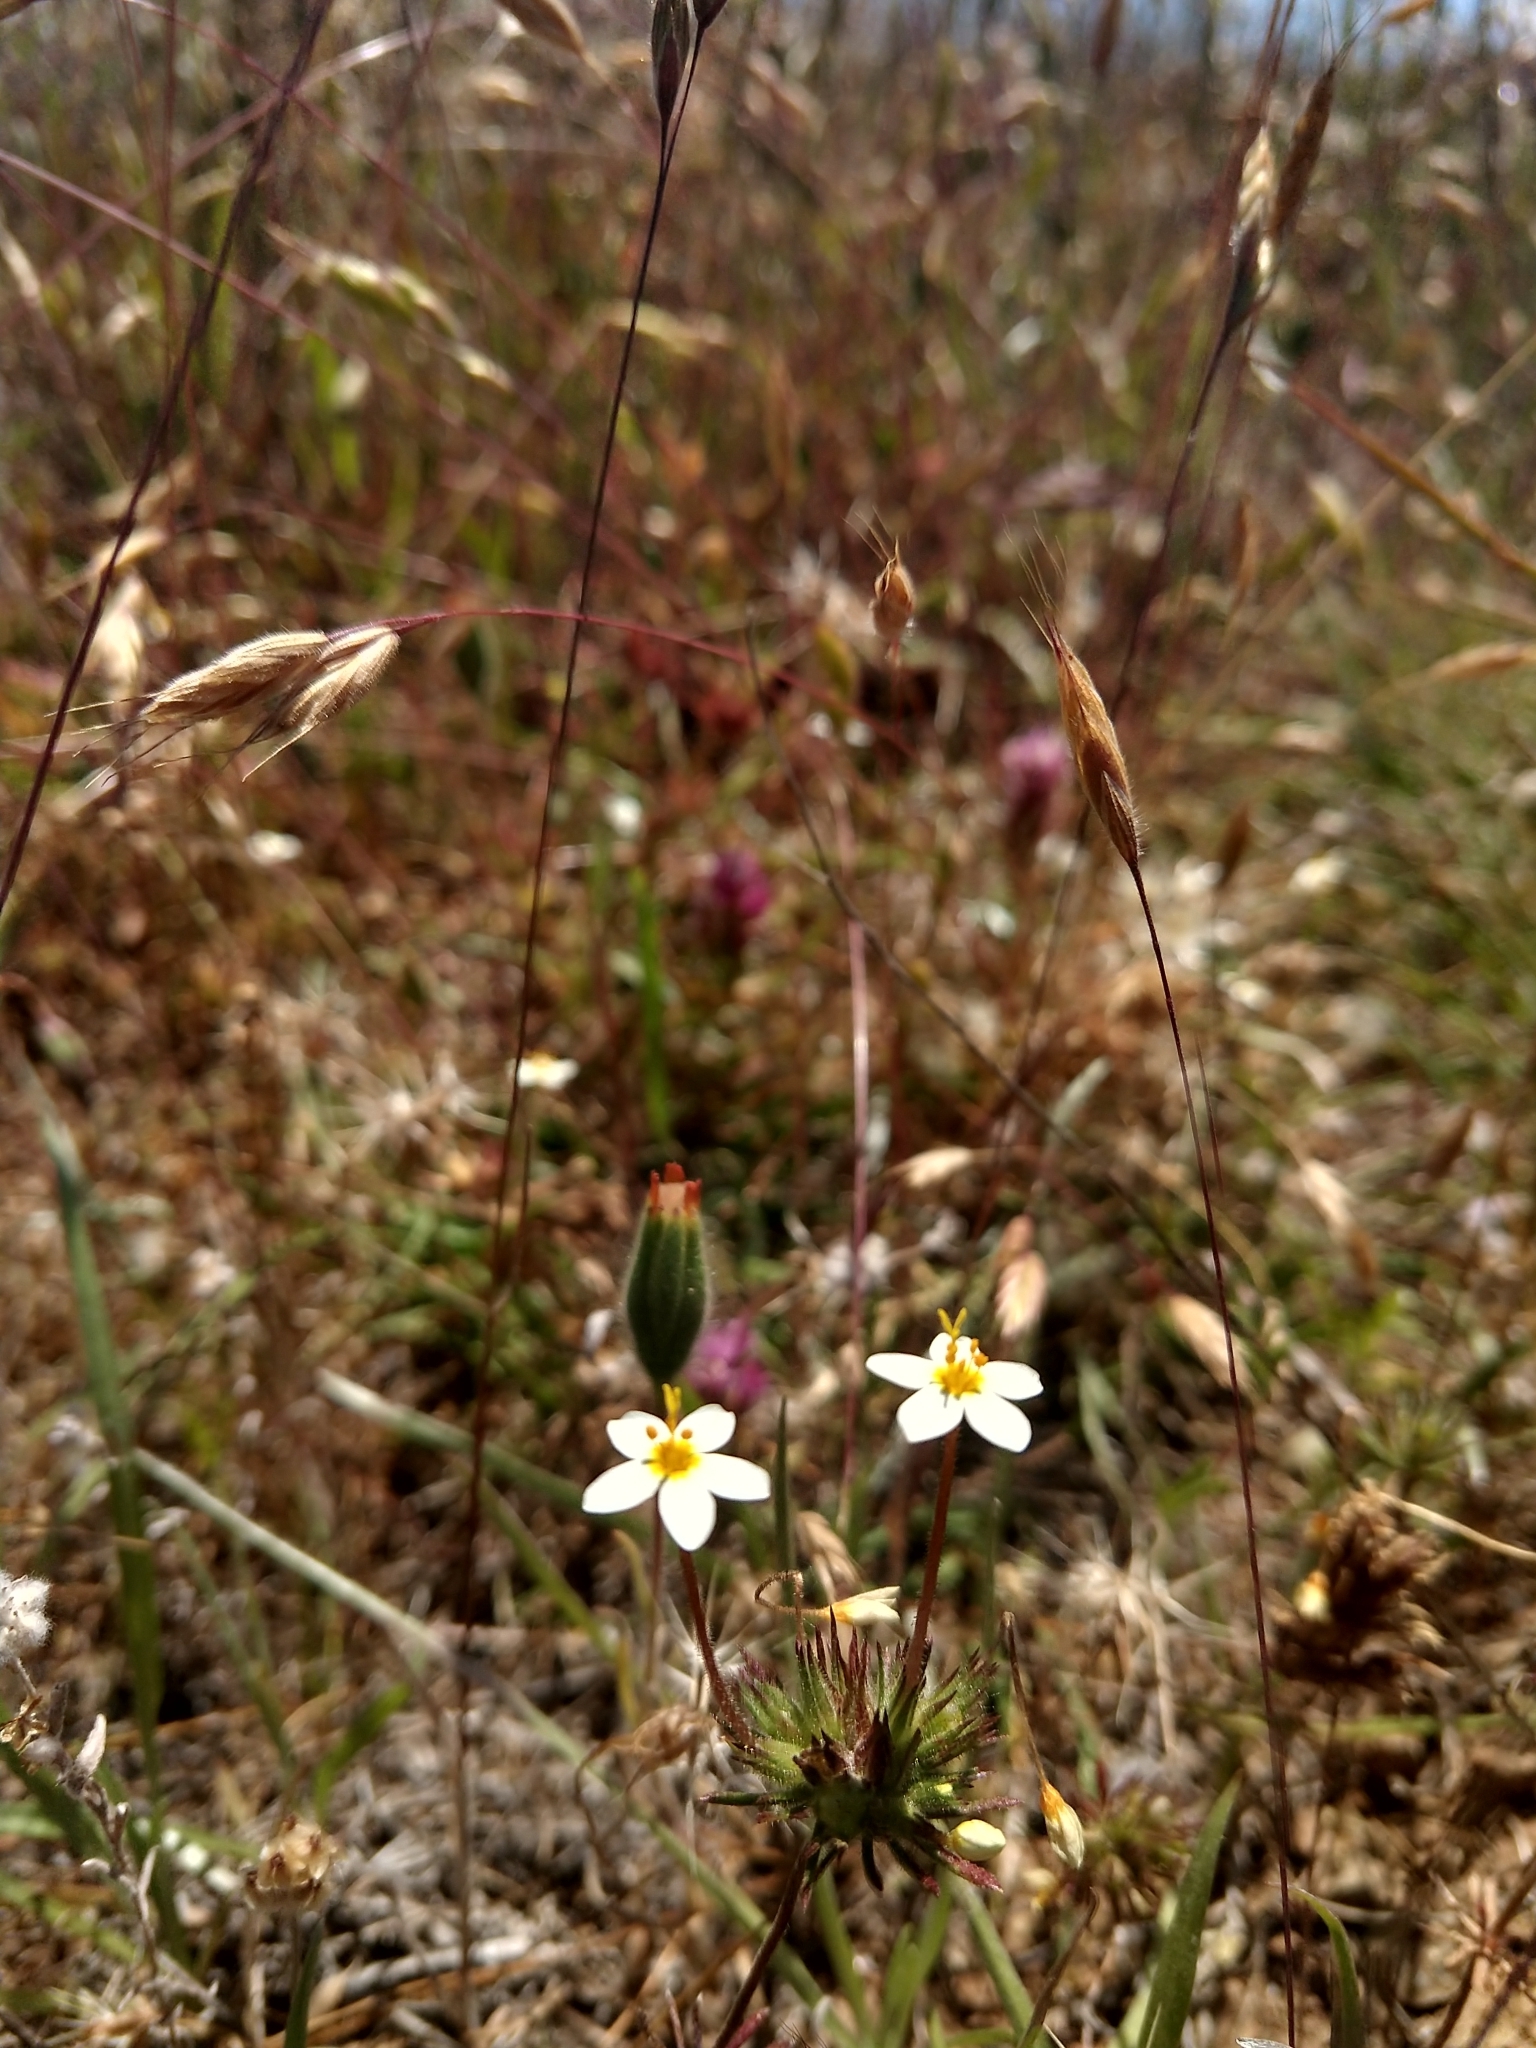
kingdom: Plantae
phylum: Tracheophyta
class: Magnoliopsida
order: Ericales
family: Polemoniaceae
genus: Leptosiphon
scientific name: Leptosiphon parviflorus
